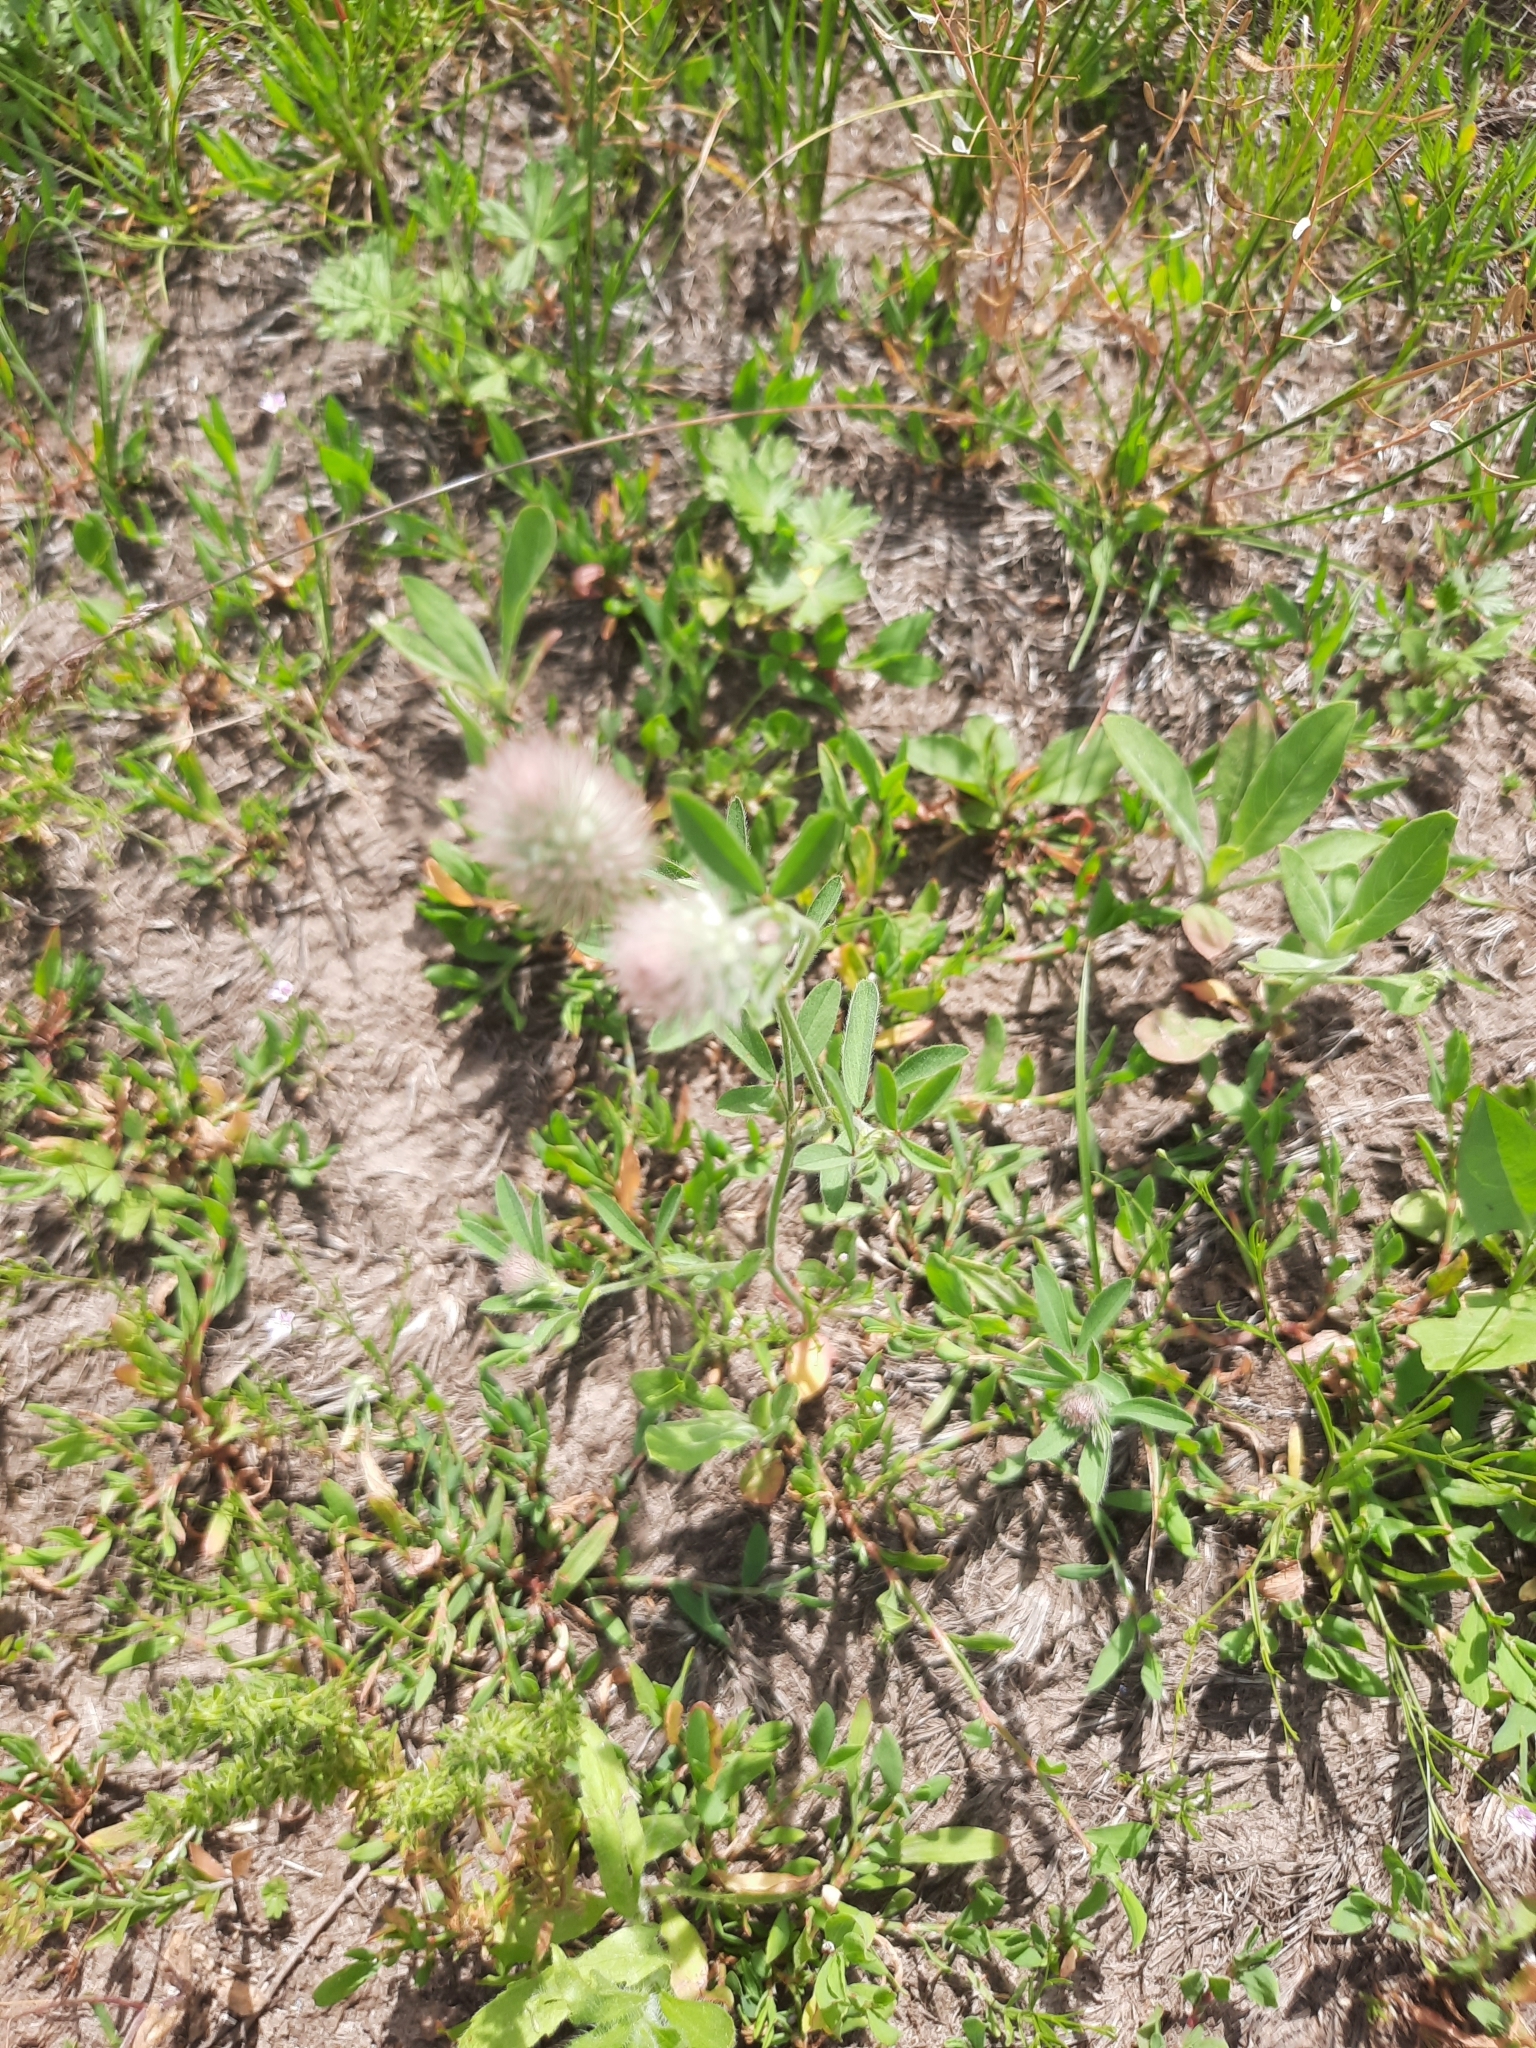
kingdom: Plantae
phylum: Tracheophyta
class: Magnoliopsida
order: Fabales
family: Fabaceae
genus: Trifolium
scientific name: Trifolium arvense
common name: Hare's-foot clover
